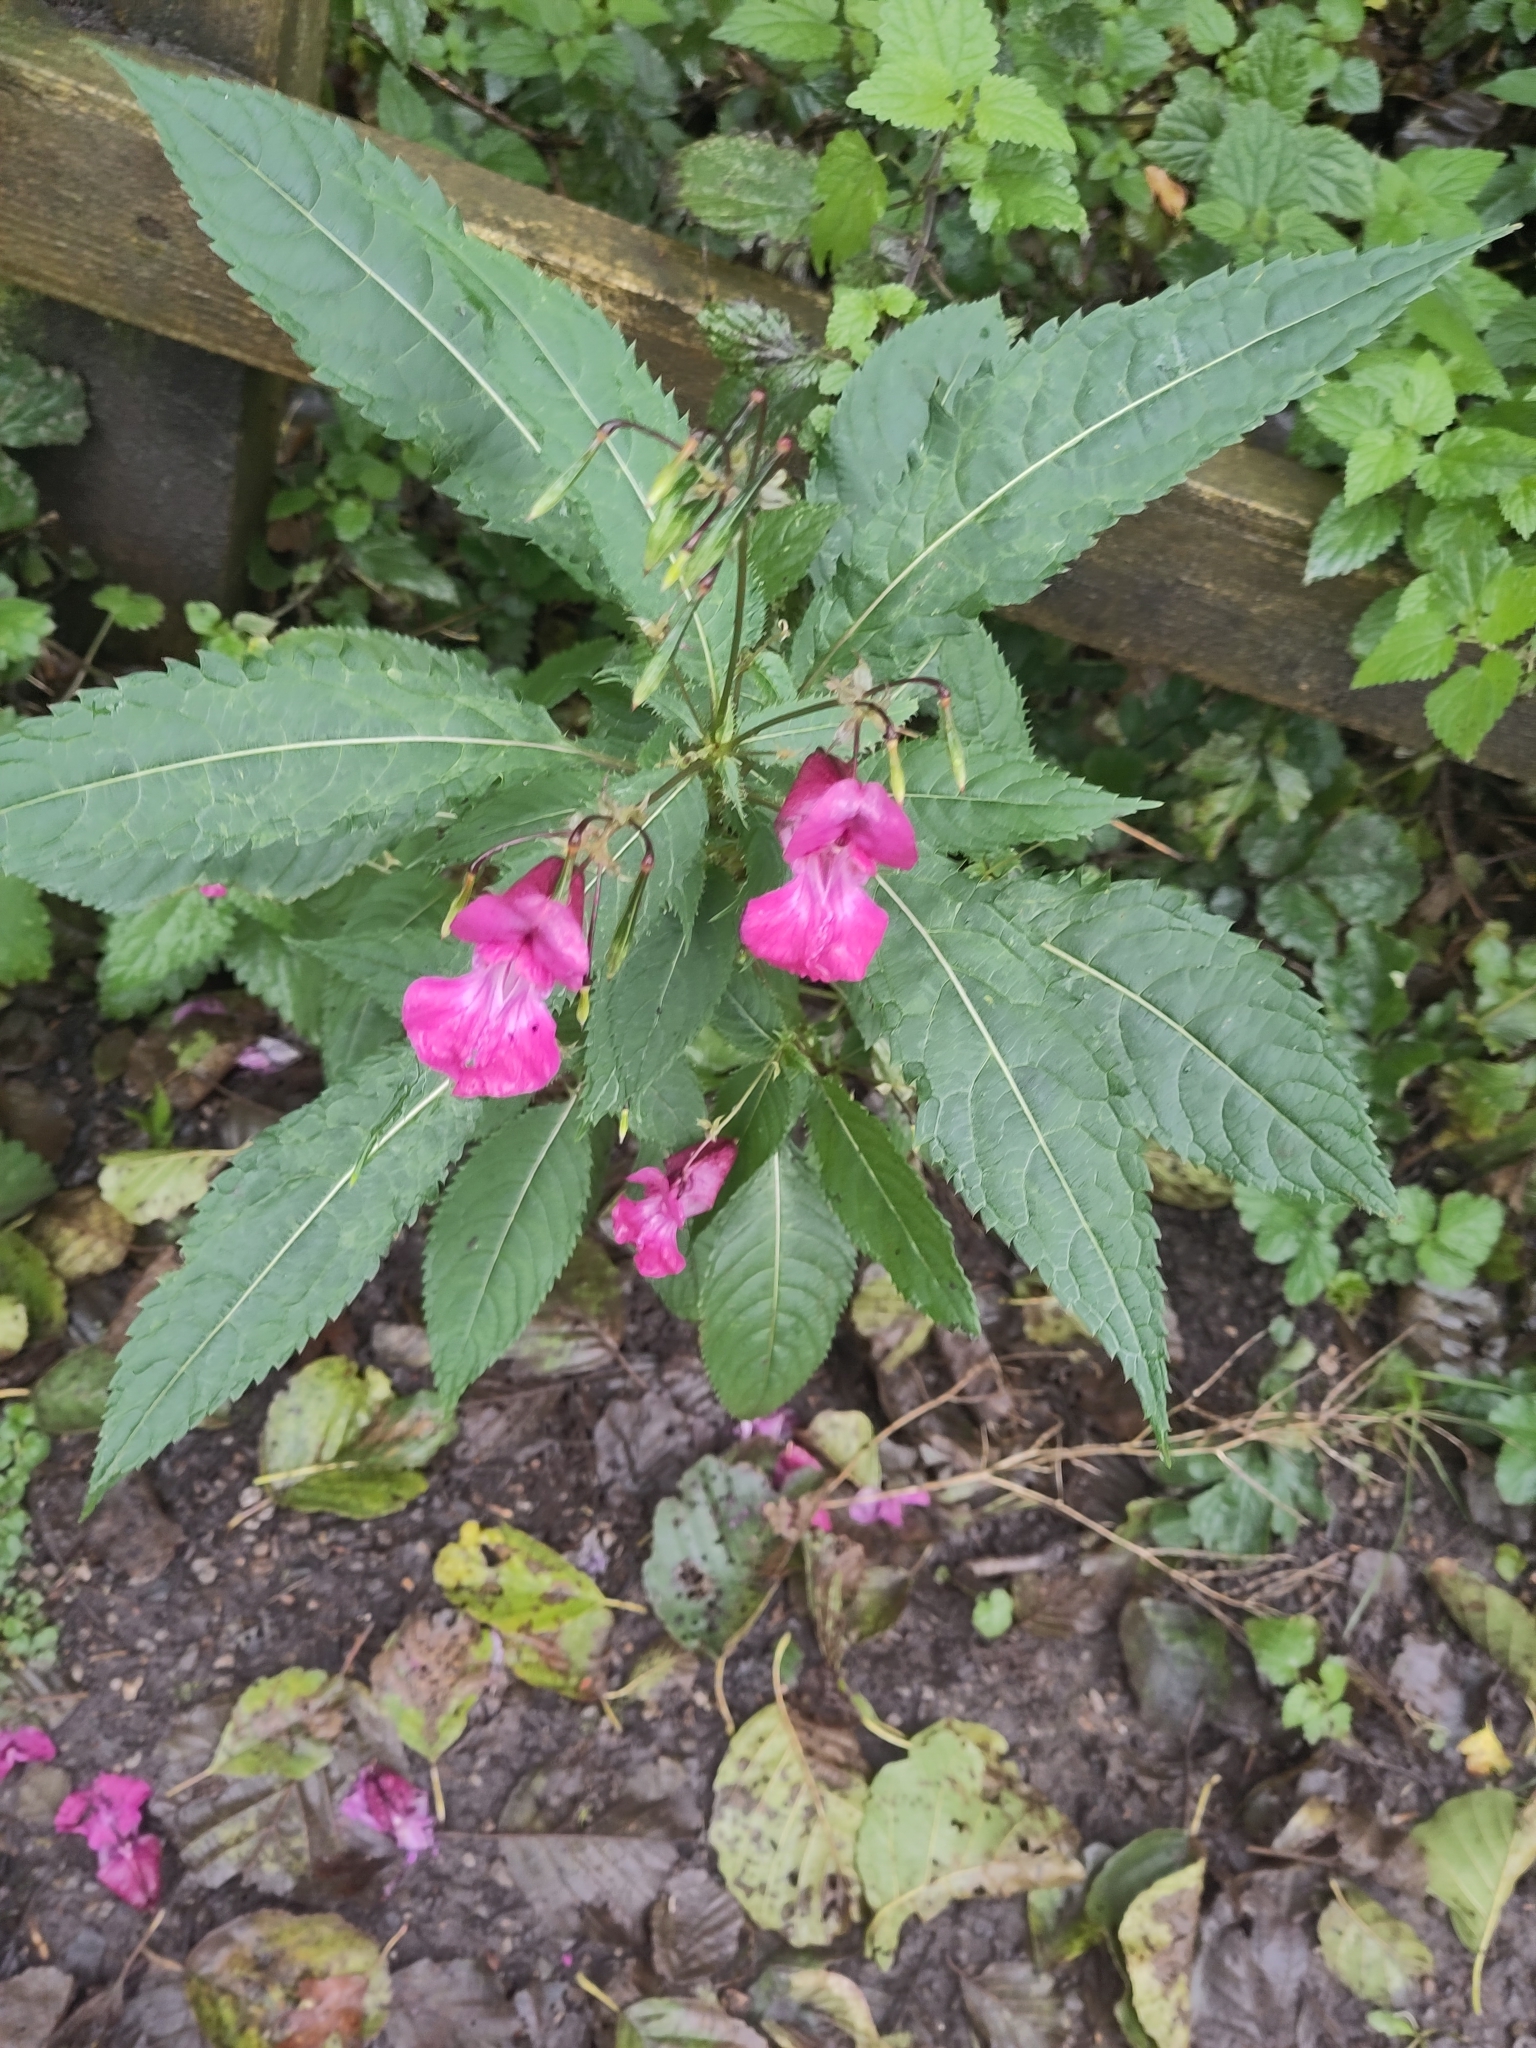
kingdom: Plantae
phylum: Tracheophyta
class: Magnoliopsida
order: Ericales
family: Balsaminaceae
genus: Impatiens
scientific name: Impatiens glandulifera
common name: Himalayan balsam
